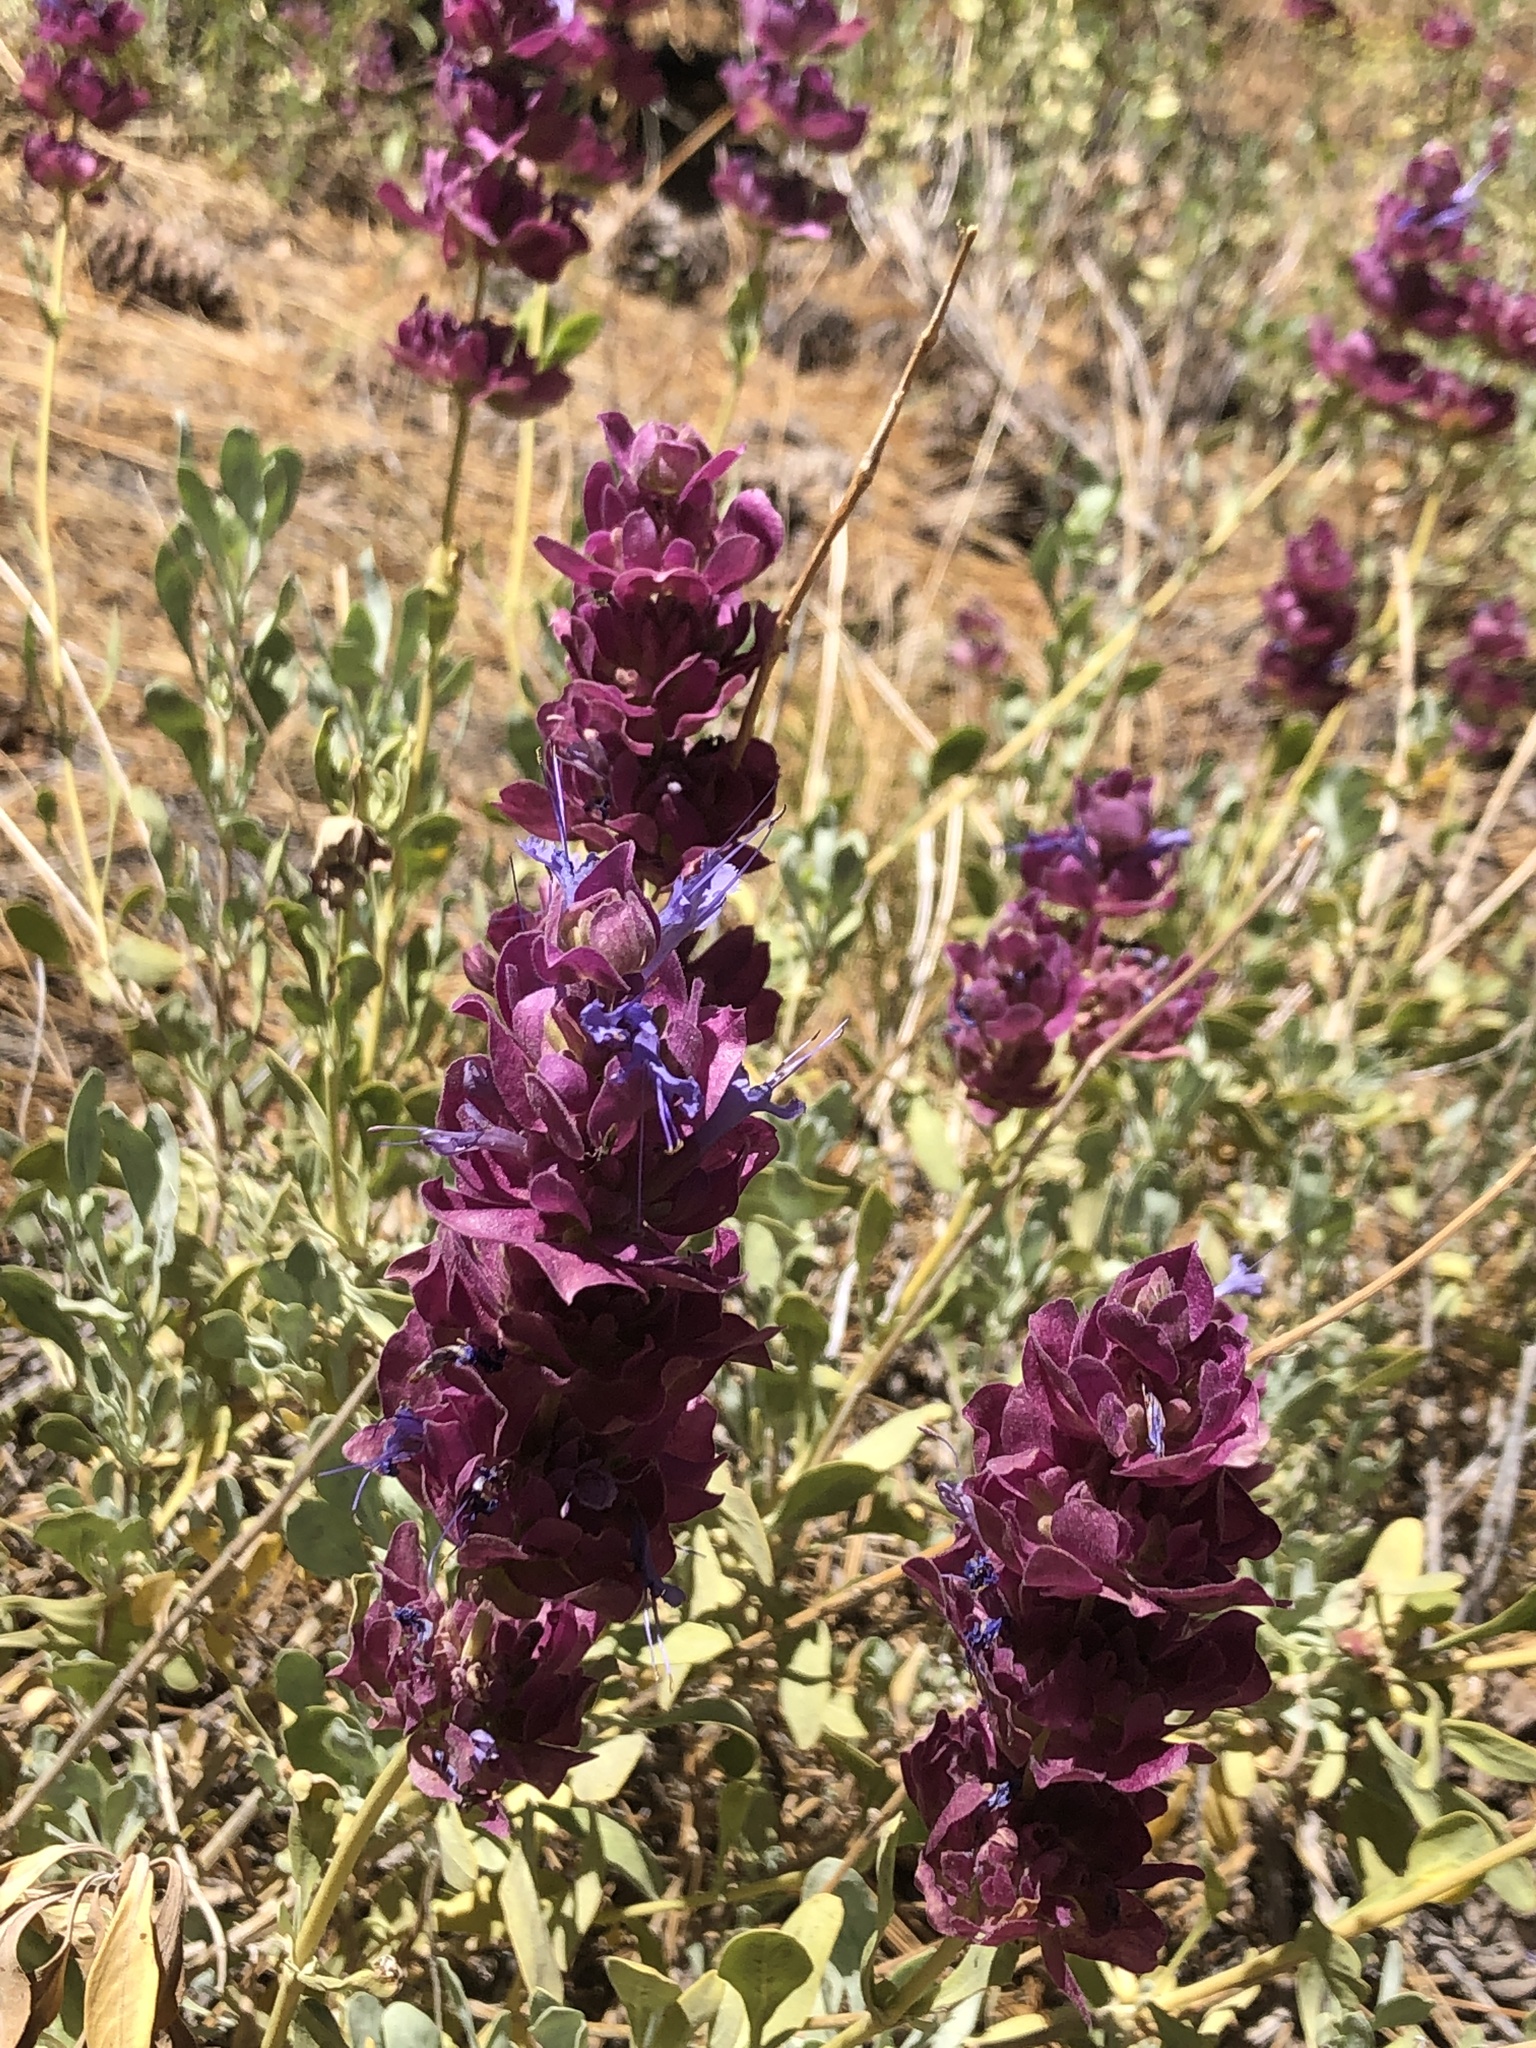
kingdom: Plantae
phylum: Tracheophyta
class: Magnoliopsida
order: Lamiales
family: Lamiaceae
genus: Salvia
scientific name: Salvia pachyphylla
